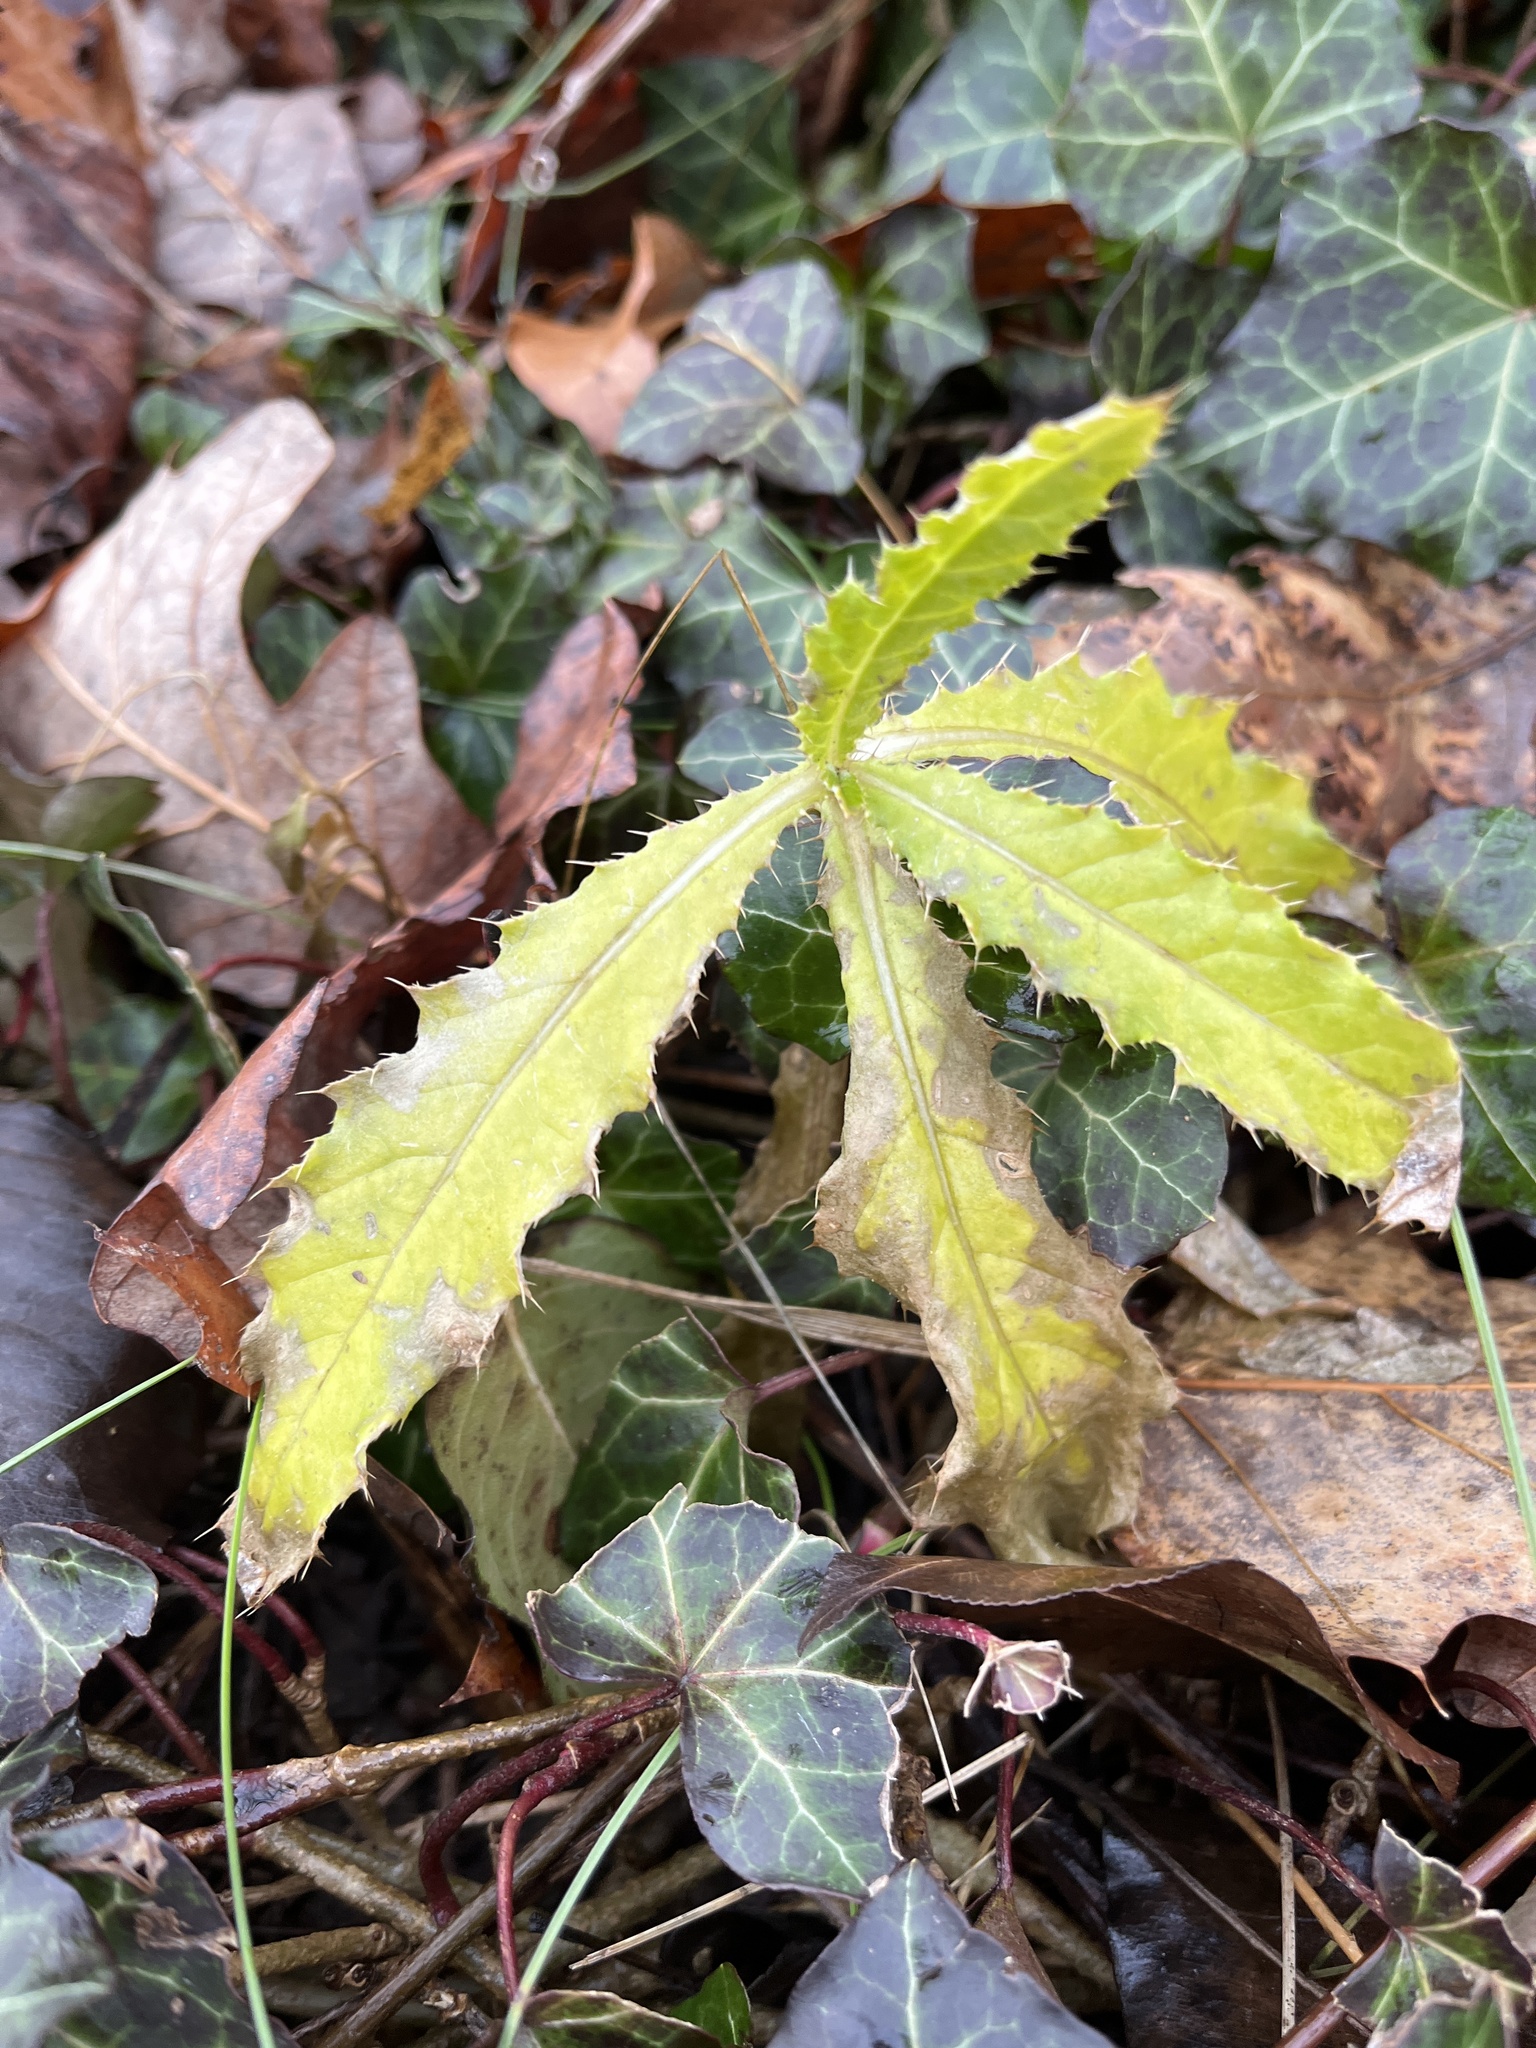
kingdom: Plantae
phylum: Tracheophyta
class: Magnoliopsida
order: Asterales
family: Asteraceae
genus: Cirsium
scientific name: Cirsium arvense
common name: Creeping thistle
